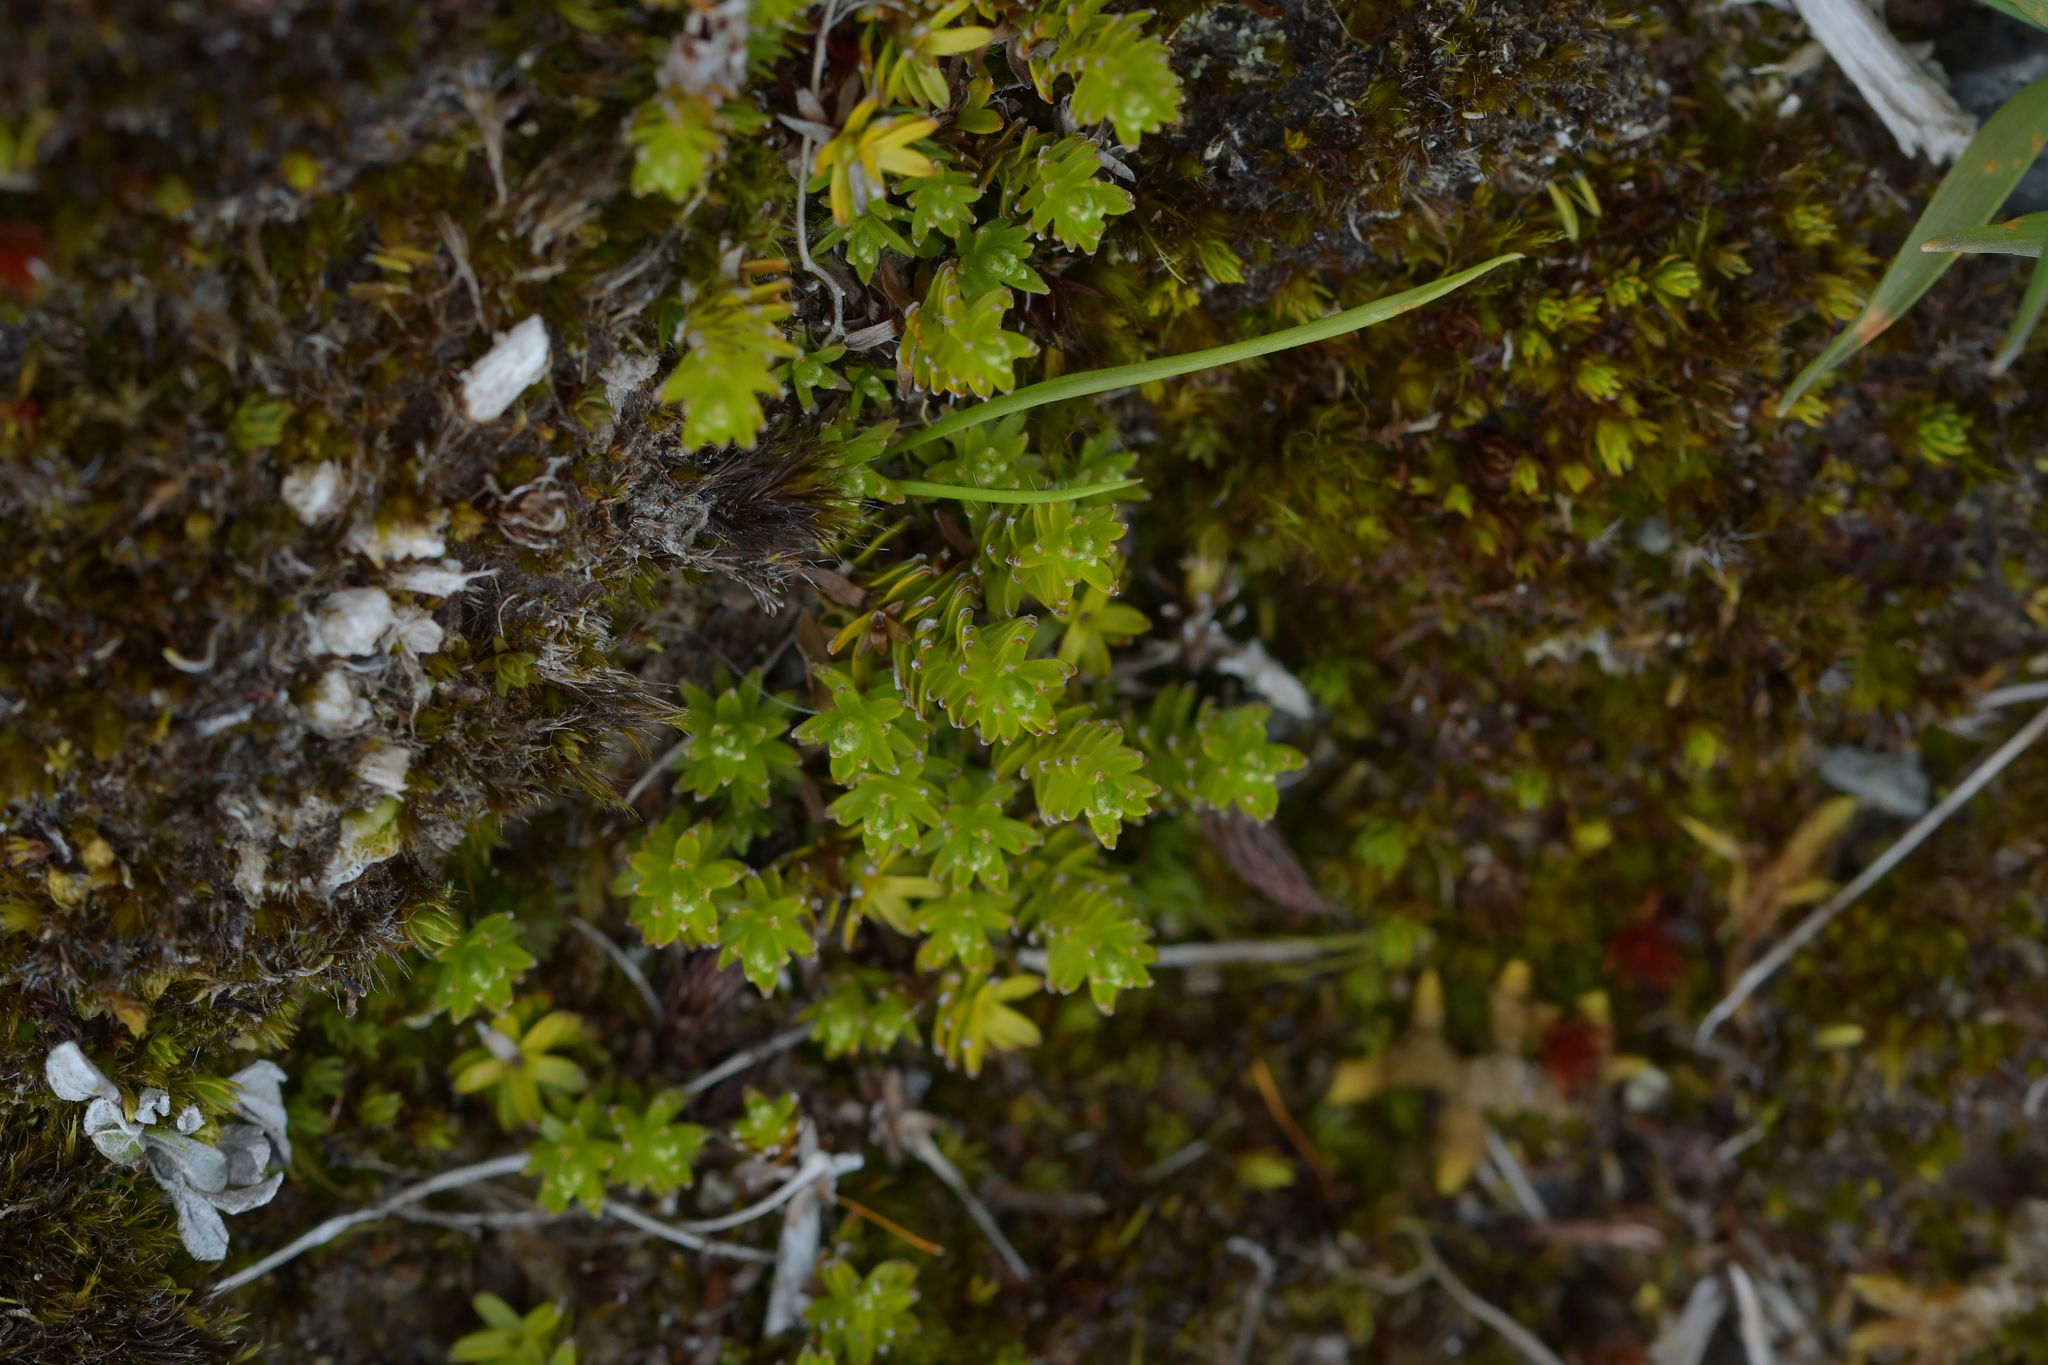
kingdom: Plantae
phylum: Tracheophyta
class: Magnoliopsida
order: Asterales
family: Asteraceae
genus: Raoulia
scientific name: Raoulia glabra
